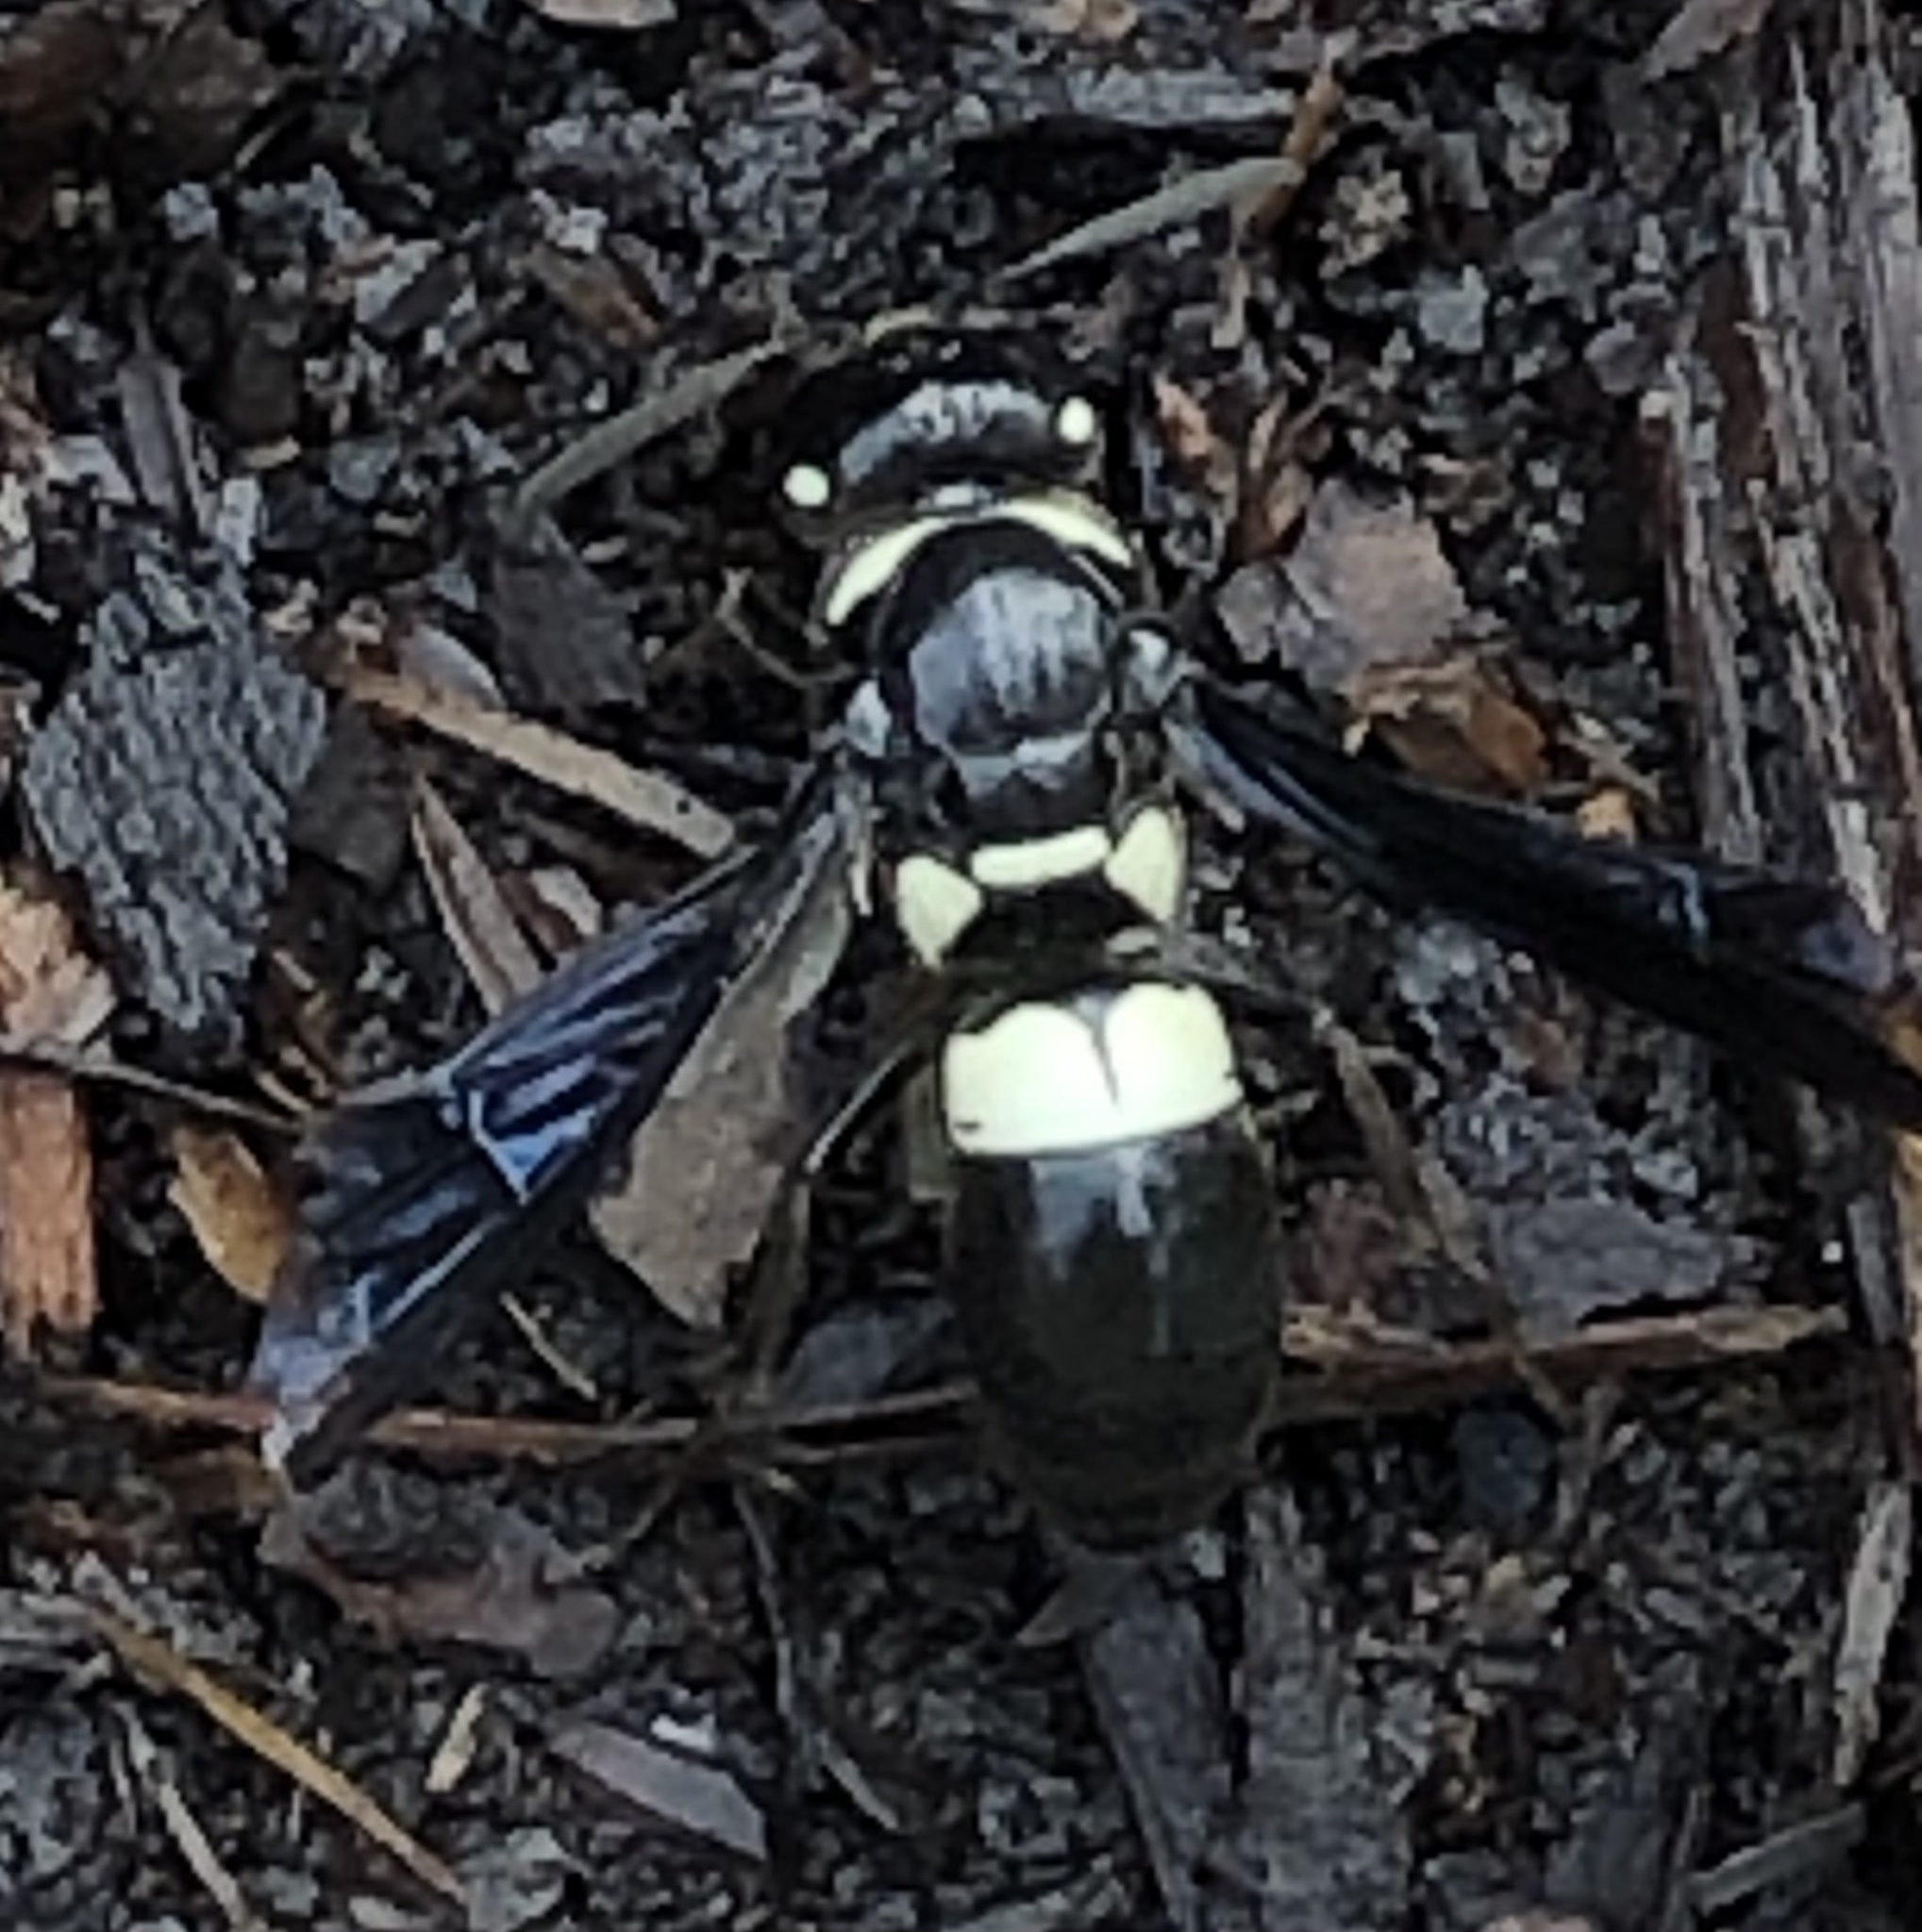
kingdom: Animalia
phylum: Arthropoda
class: Insecta
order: Hymenoptera
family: Eumenidae
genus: Euodynerus
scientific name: Euodynerus bidens
